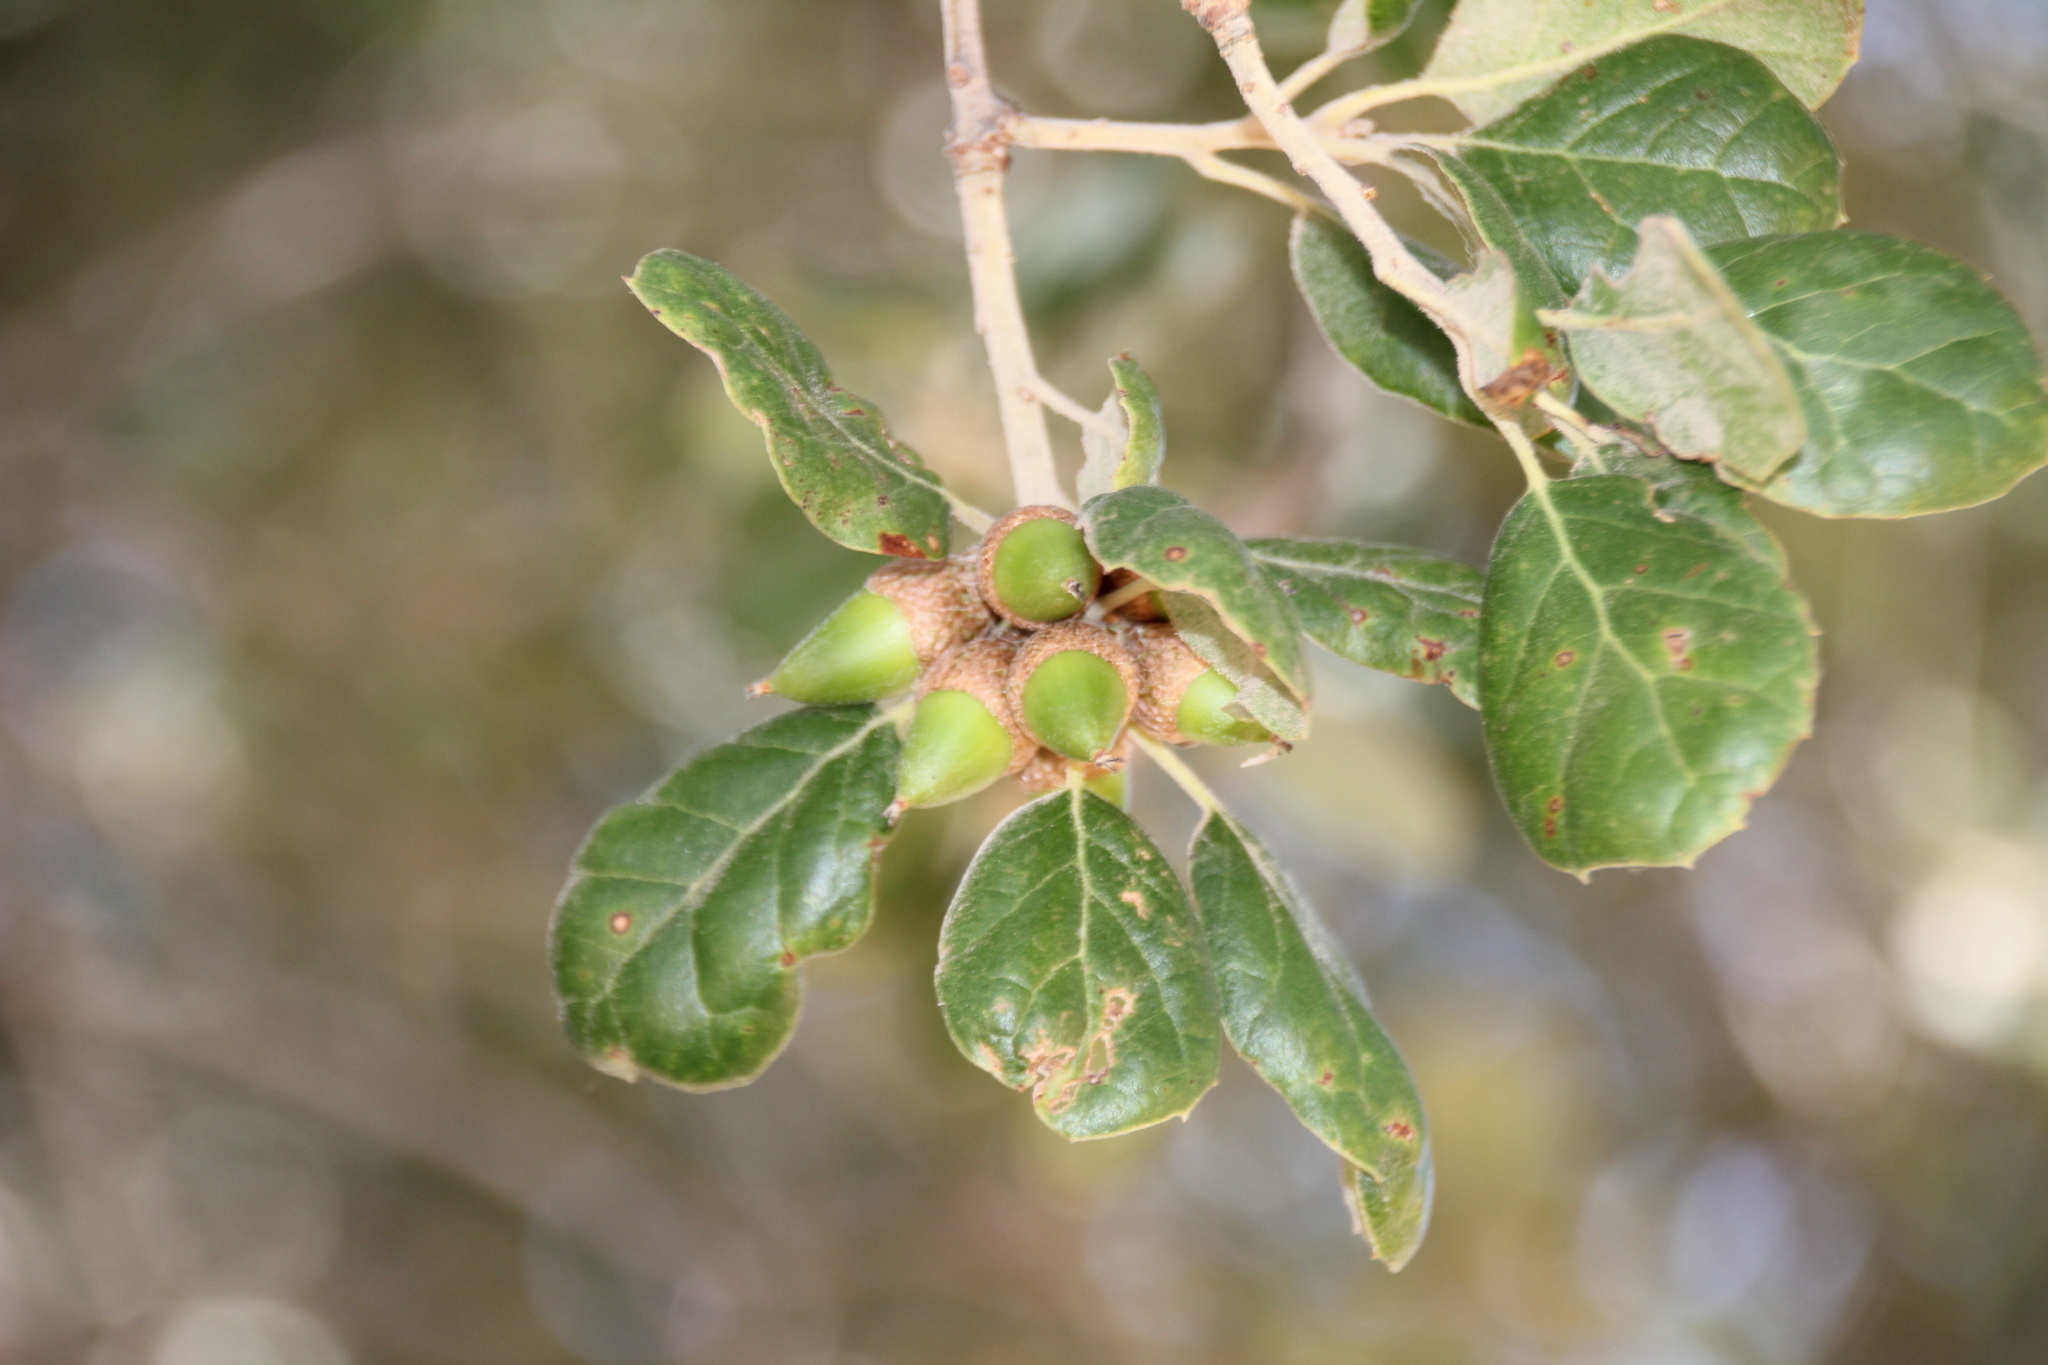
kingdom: Plantae
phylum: Tracheophyta
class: Magnoliopsida
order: Fagales
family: Fagaceae
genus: Quercus
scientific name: Quercus agrifolia
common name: California live oak
